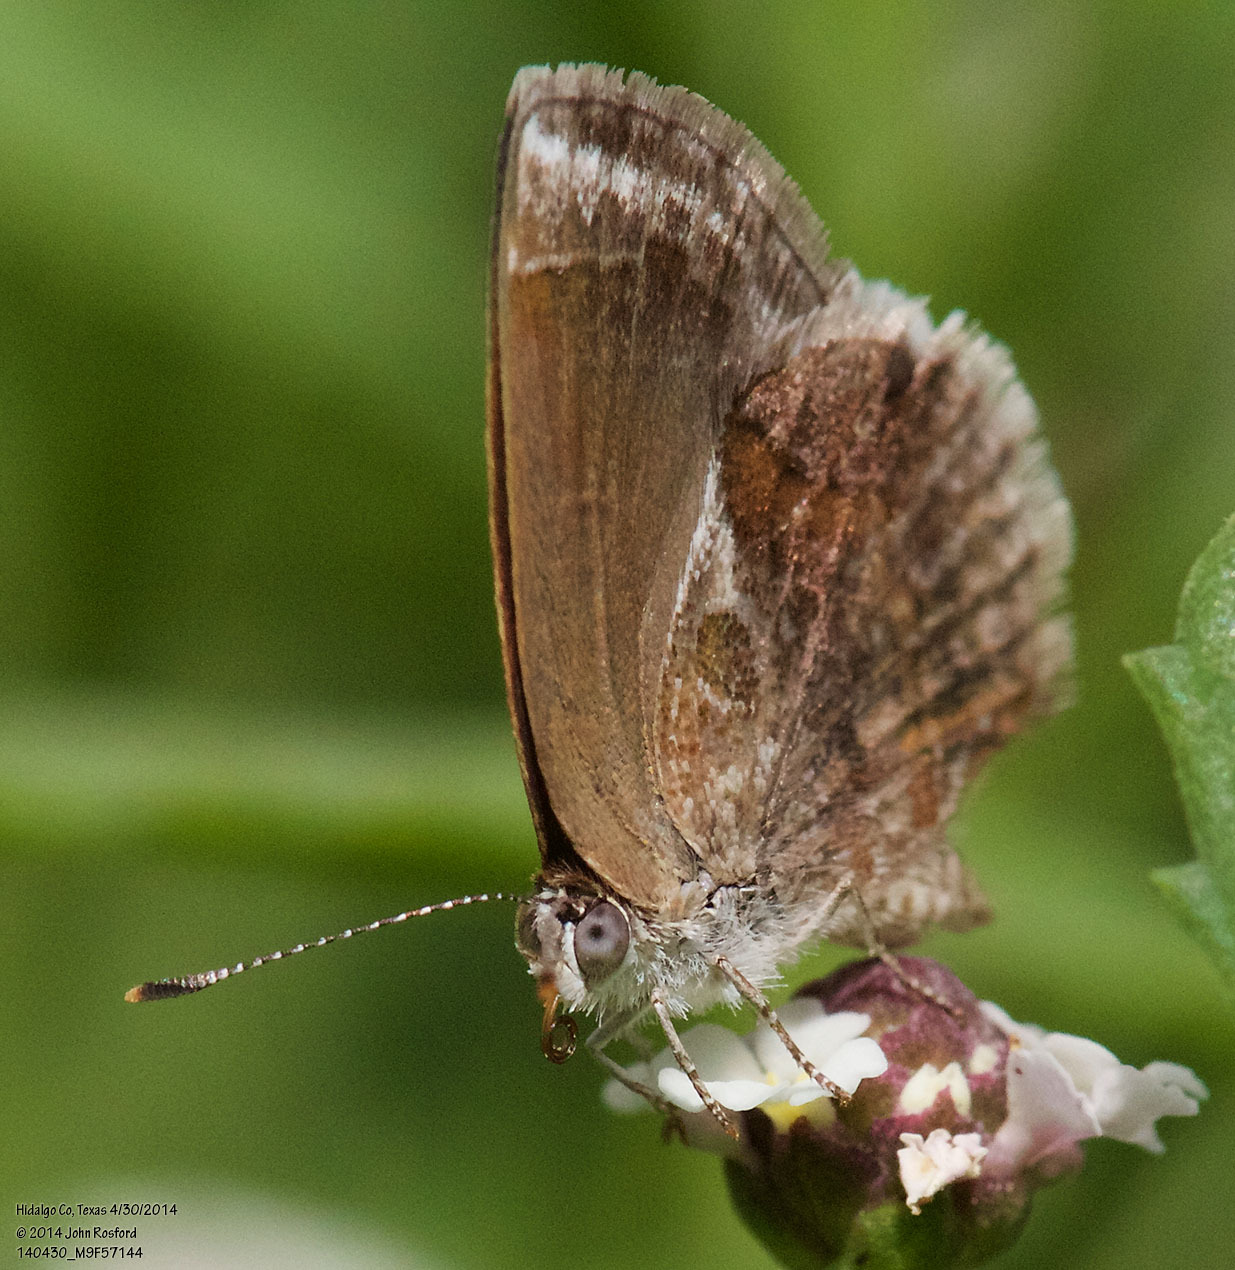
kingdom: Animalia
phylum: Arthropoda
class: Insecta
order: Lepidoptera
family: Lycaenidae
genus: Strymon
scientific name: Strymon bazochii
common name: Lantana scrub-hairstreak
